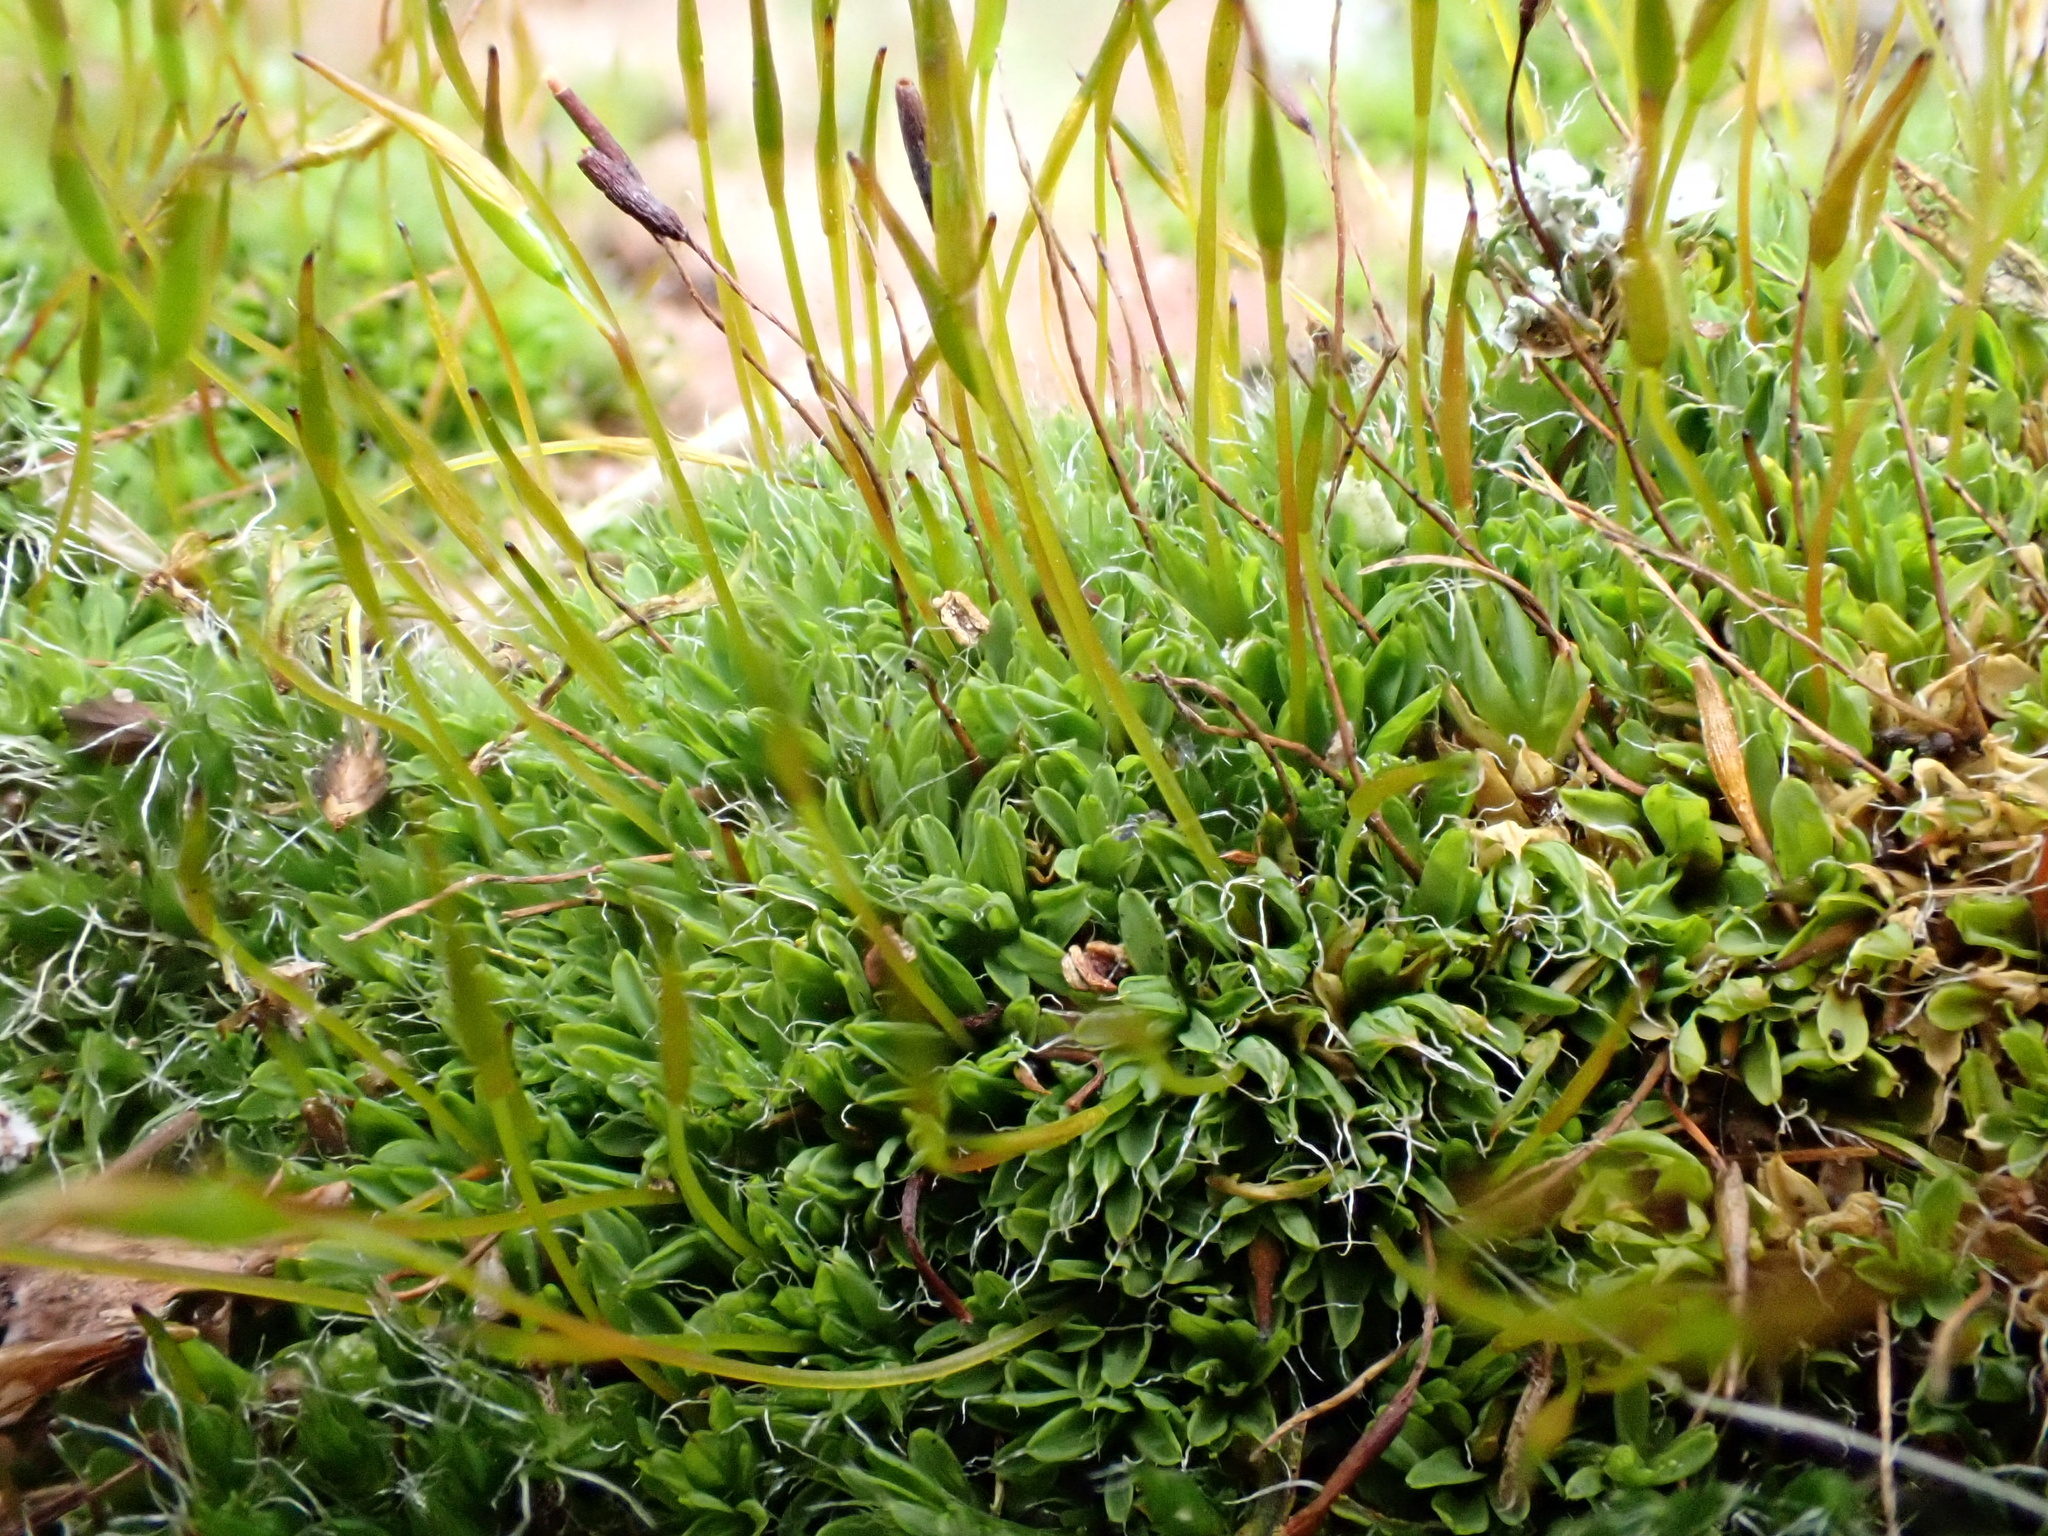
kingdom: Plantae
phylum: Bryophyta
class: Bryopsida
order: Pottiales
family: Pottiaceae
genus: Tortula
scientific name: Tortula muralis
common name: Wall screw-moss
